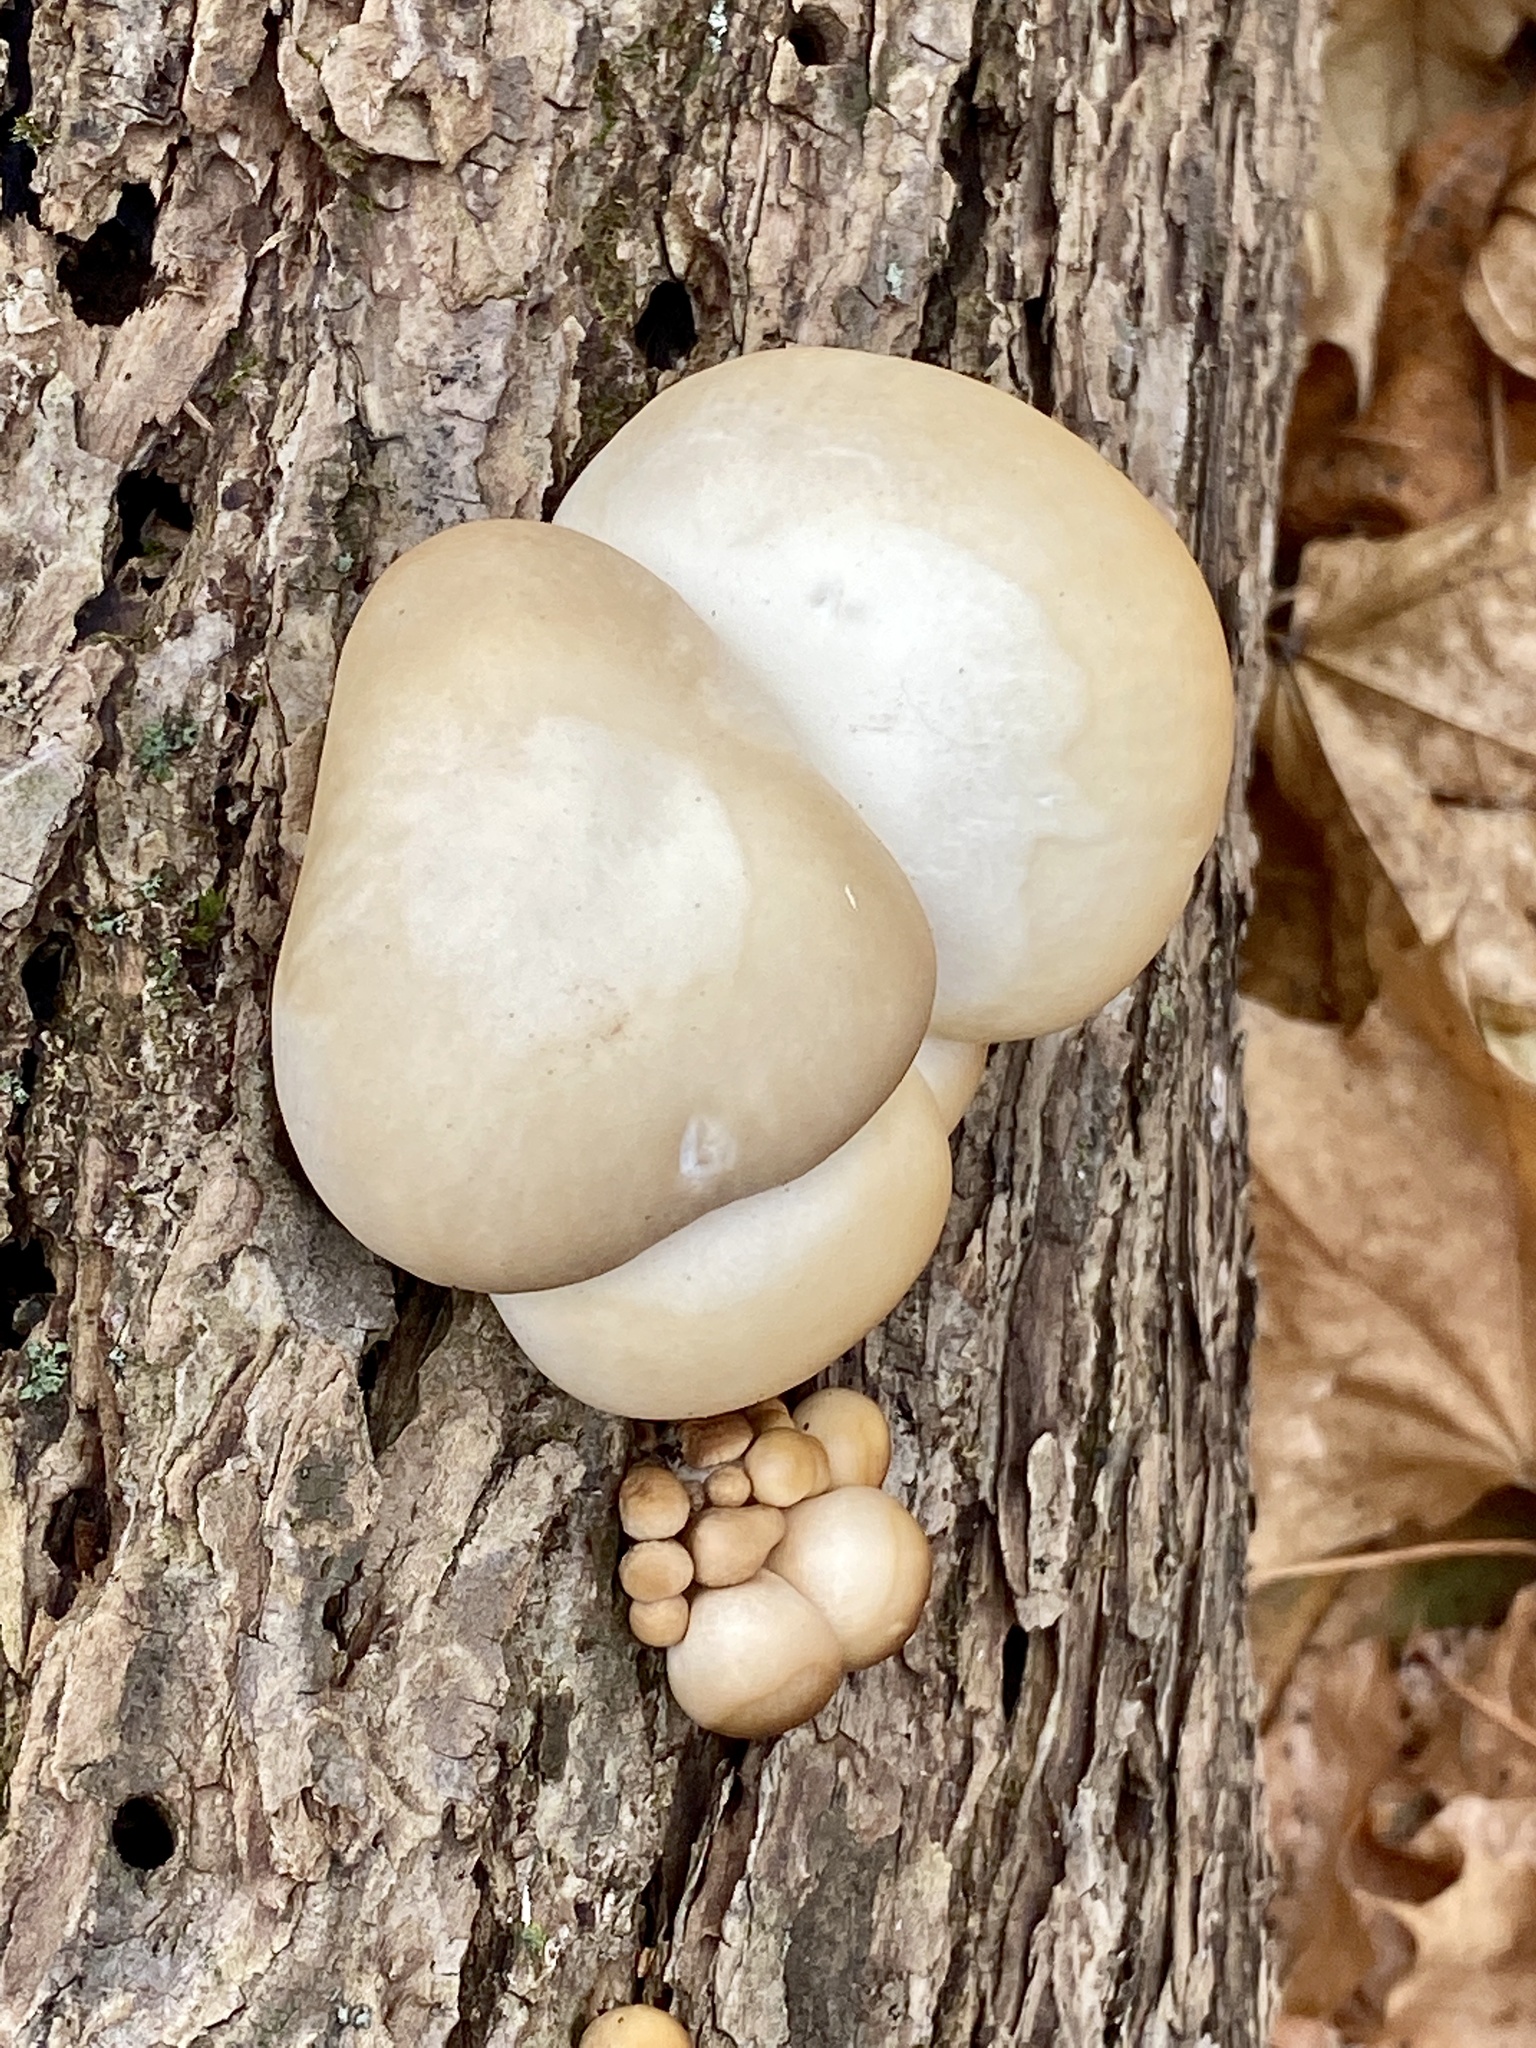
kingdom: Fungi
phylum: Basidiomycota
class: Agaricomycetes
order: Agaricales
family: Pleurotaceae
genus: Pleurotus
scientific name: Pleurotus ostreatus
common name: Oyster mushroom
